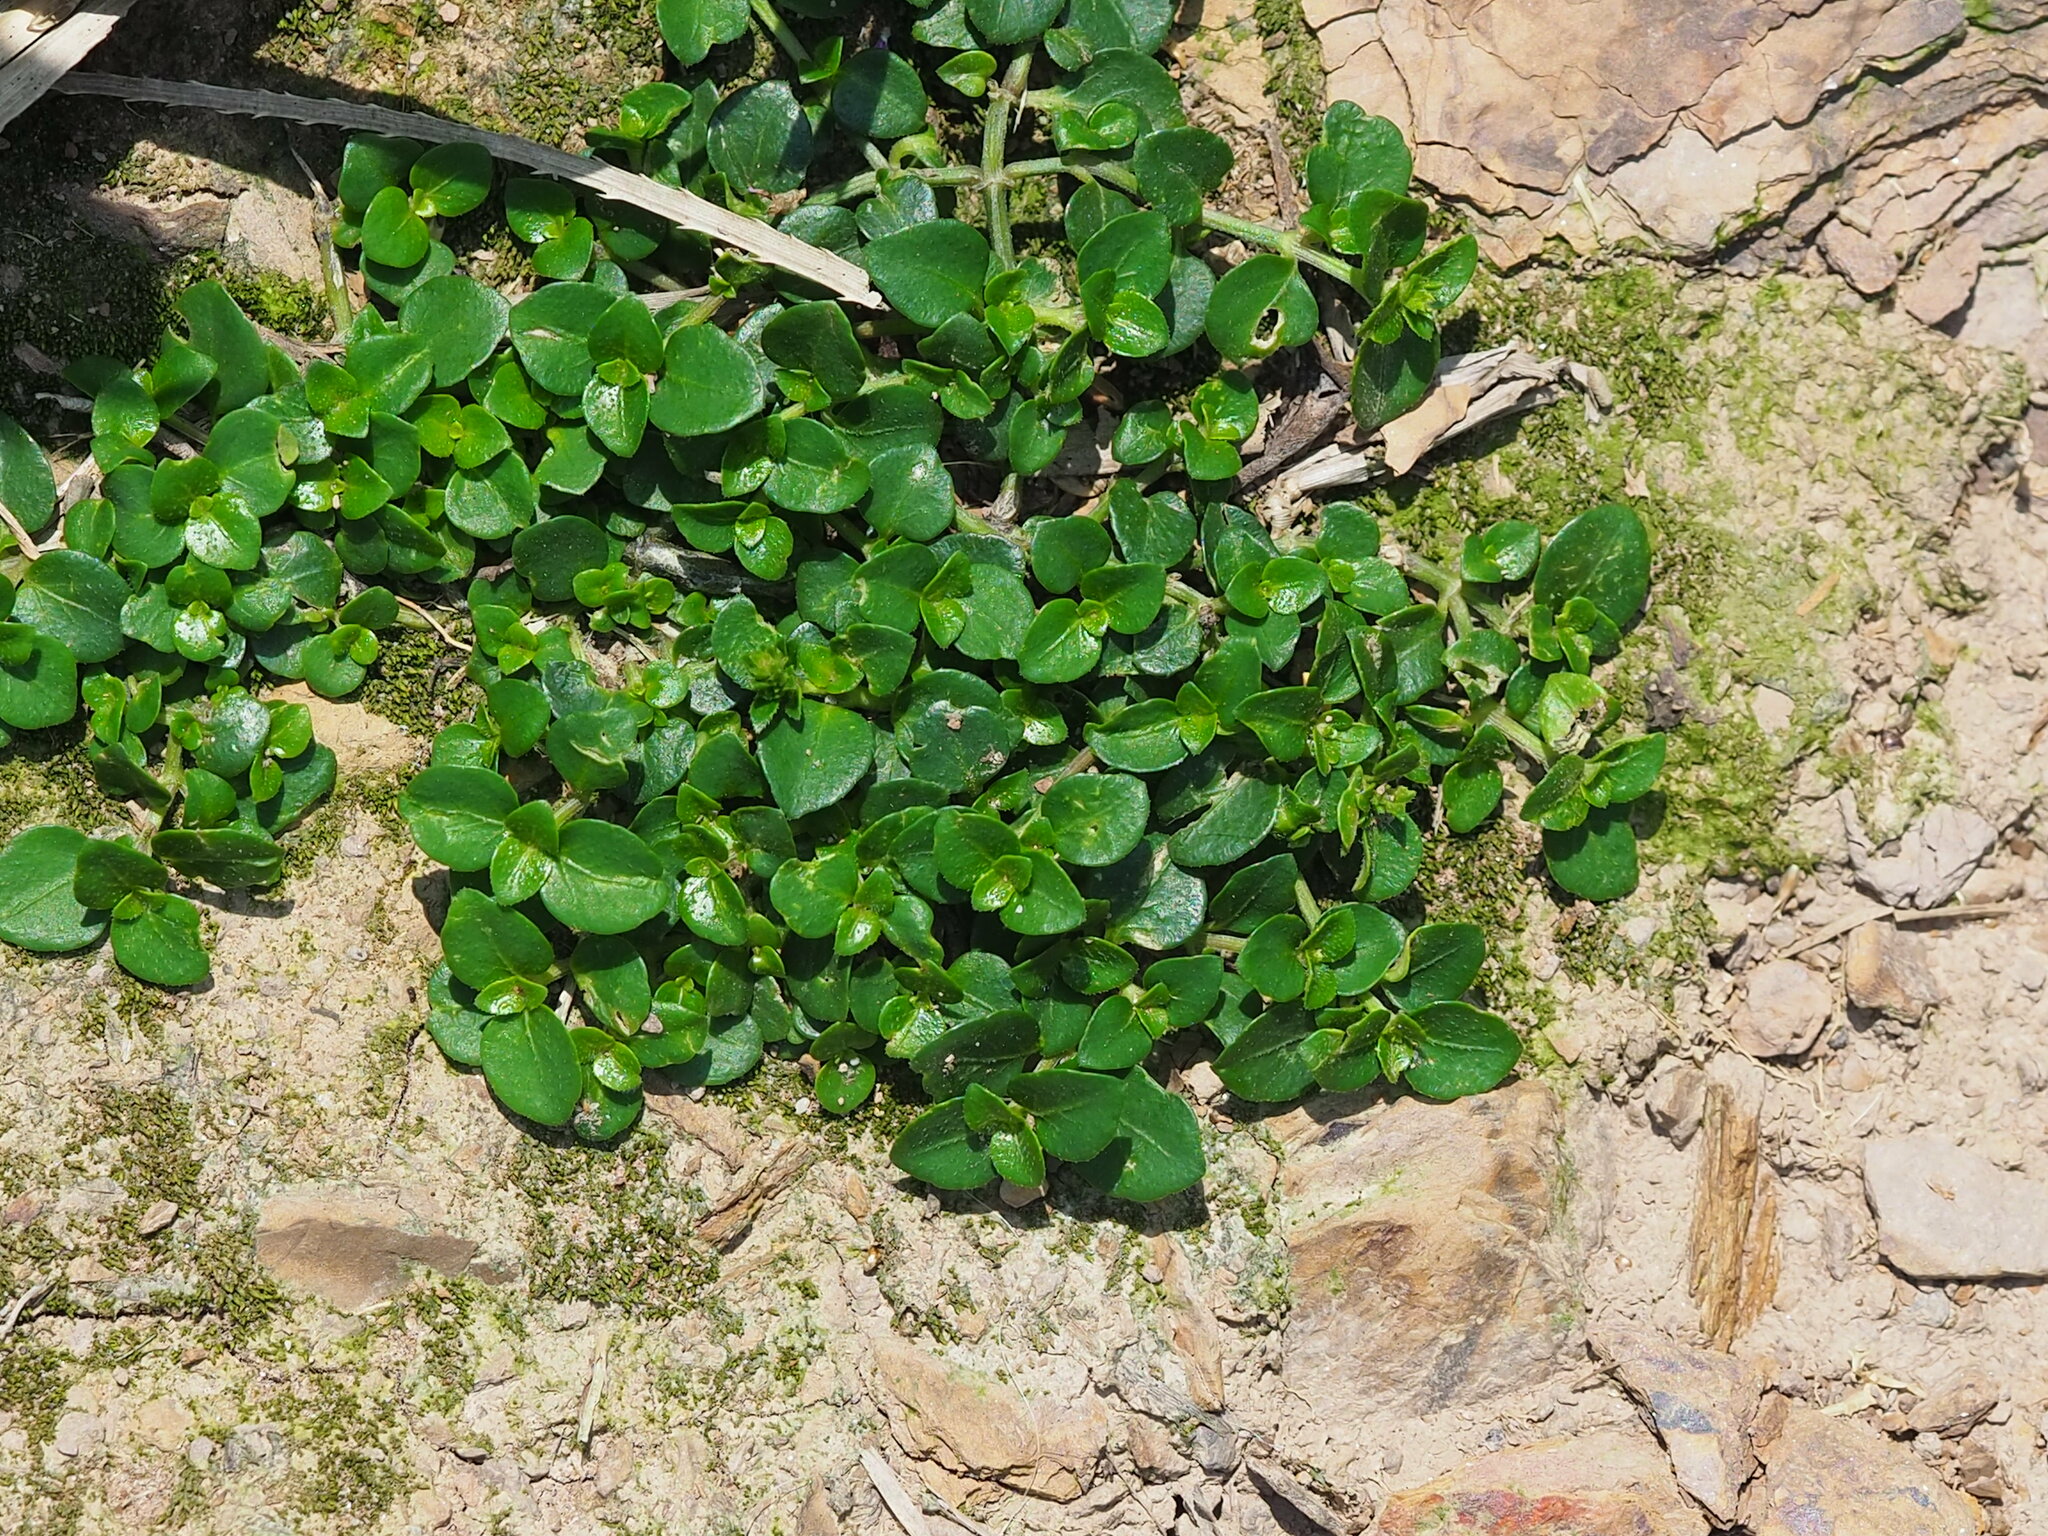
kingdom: Plantae
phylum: Tracheophyta
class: Magnoliopsida
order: Lamiales
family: Acanthaceae
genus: Rostellularia
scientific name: Rostellularia hayatae
